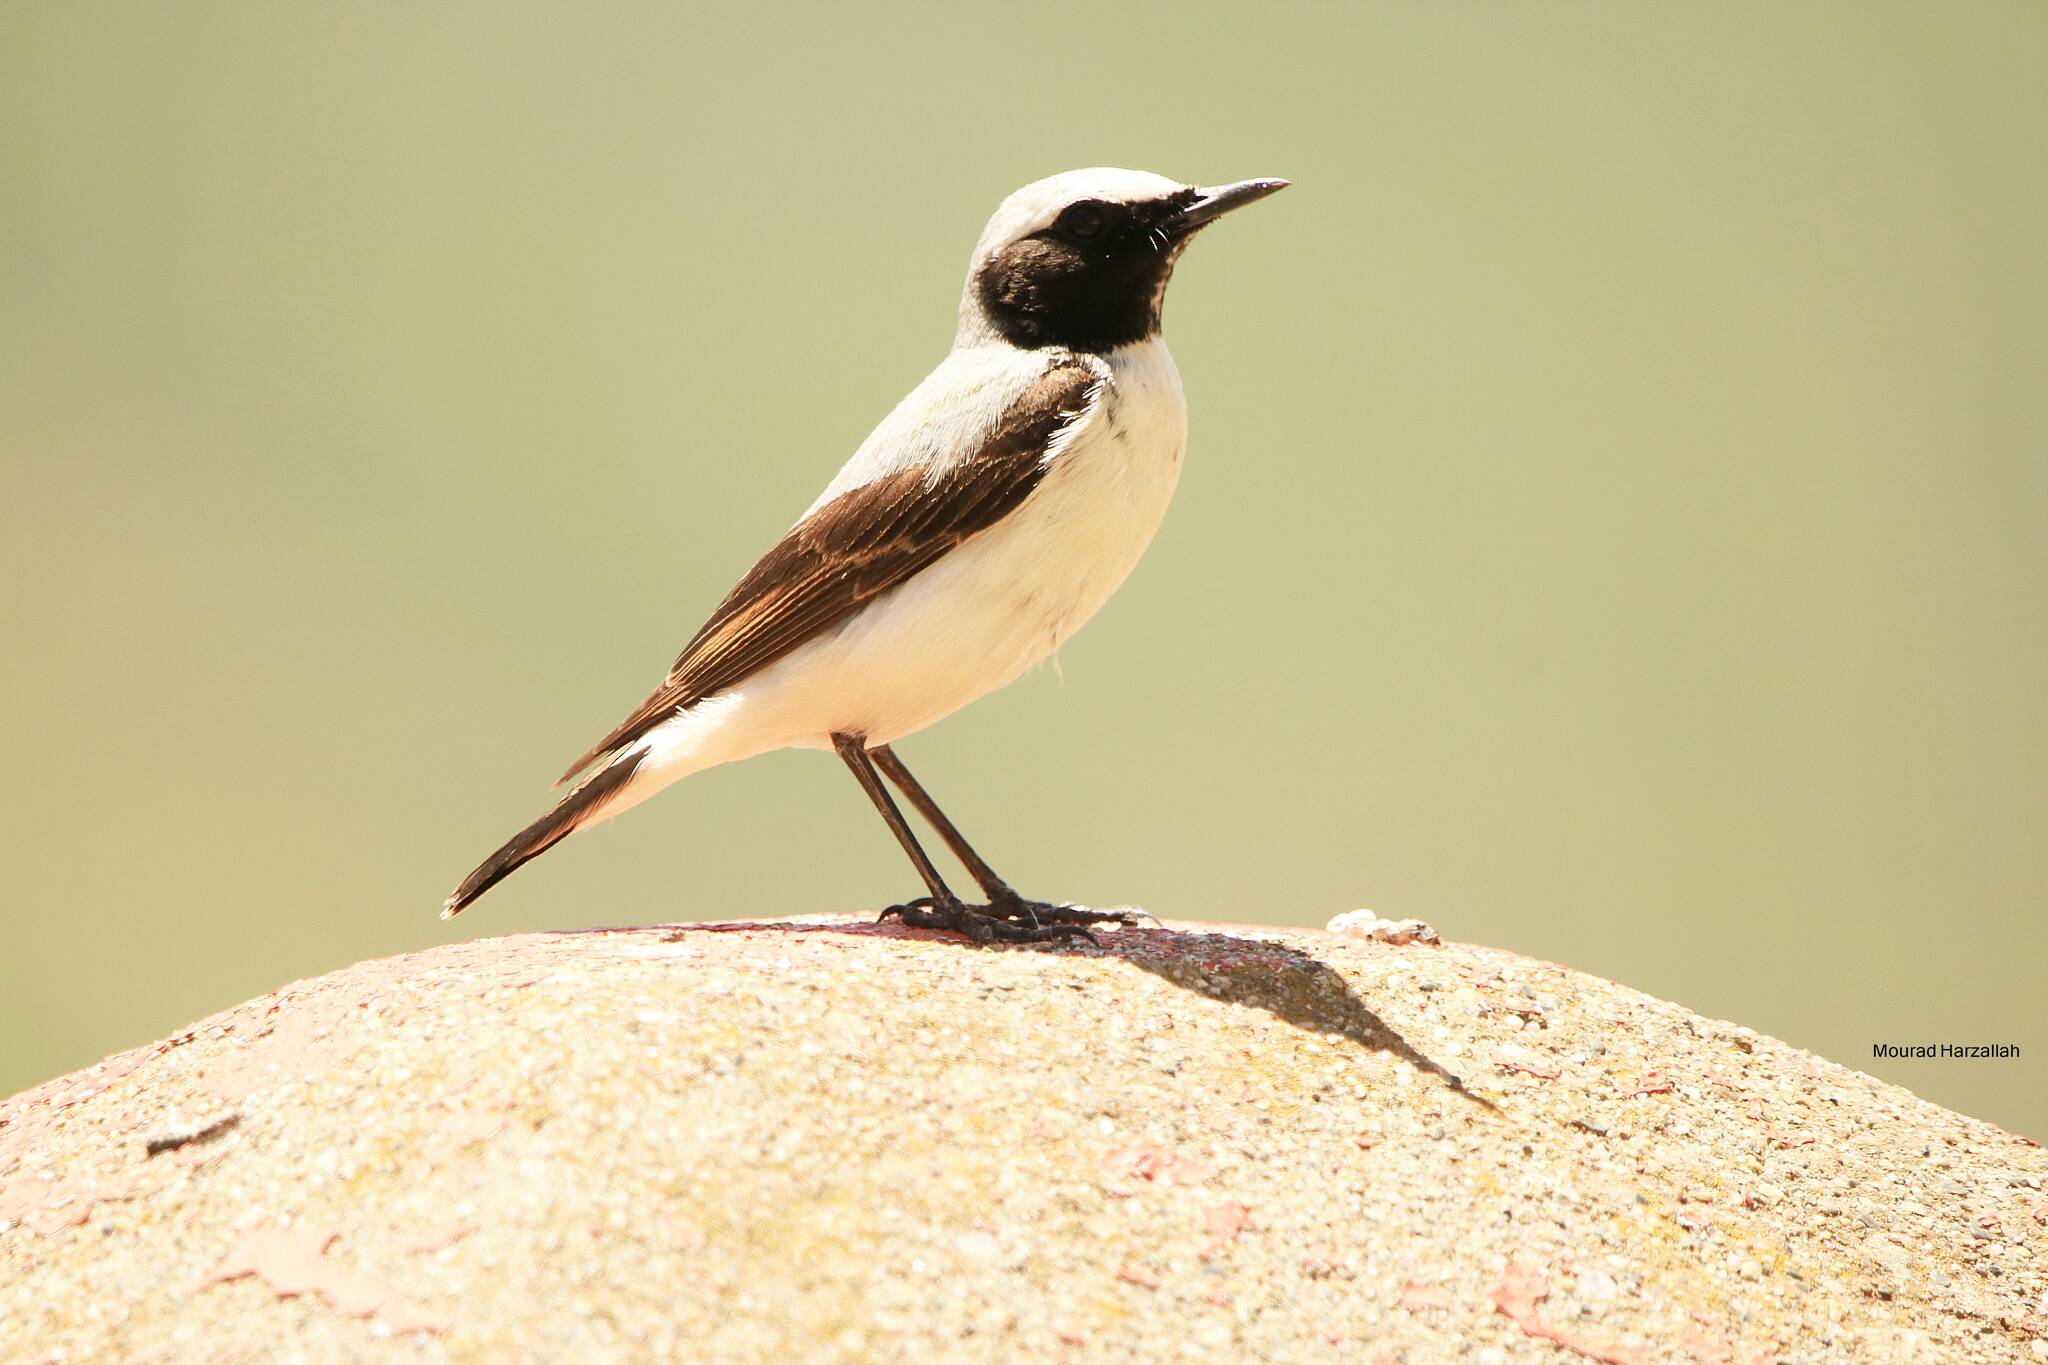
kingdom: Animalia
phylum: Chordata
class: Aves
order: Passeriformes
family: Muscicapidae
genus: Oenanthe
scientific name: Oenanthe oenanthe
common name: Northern wheatear
